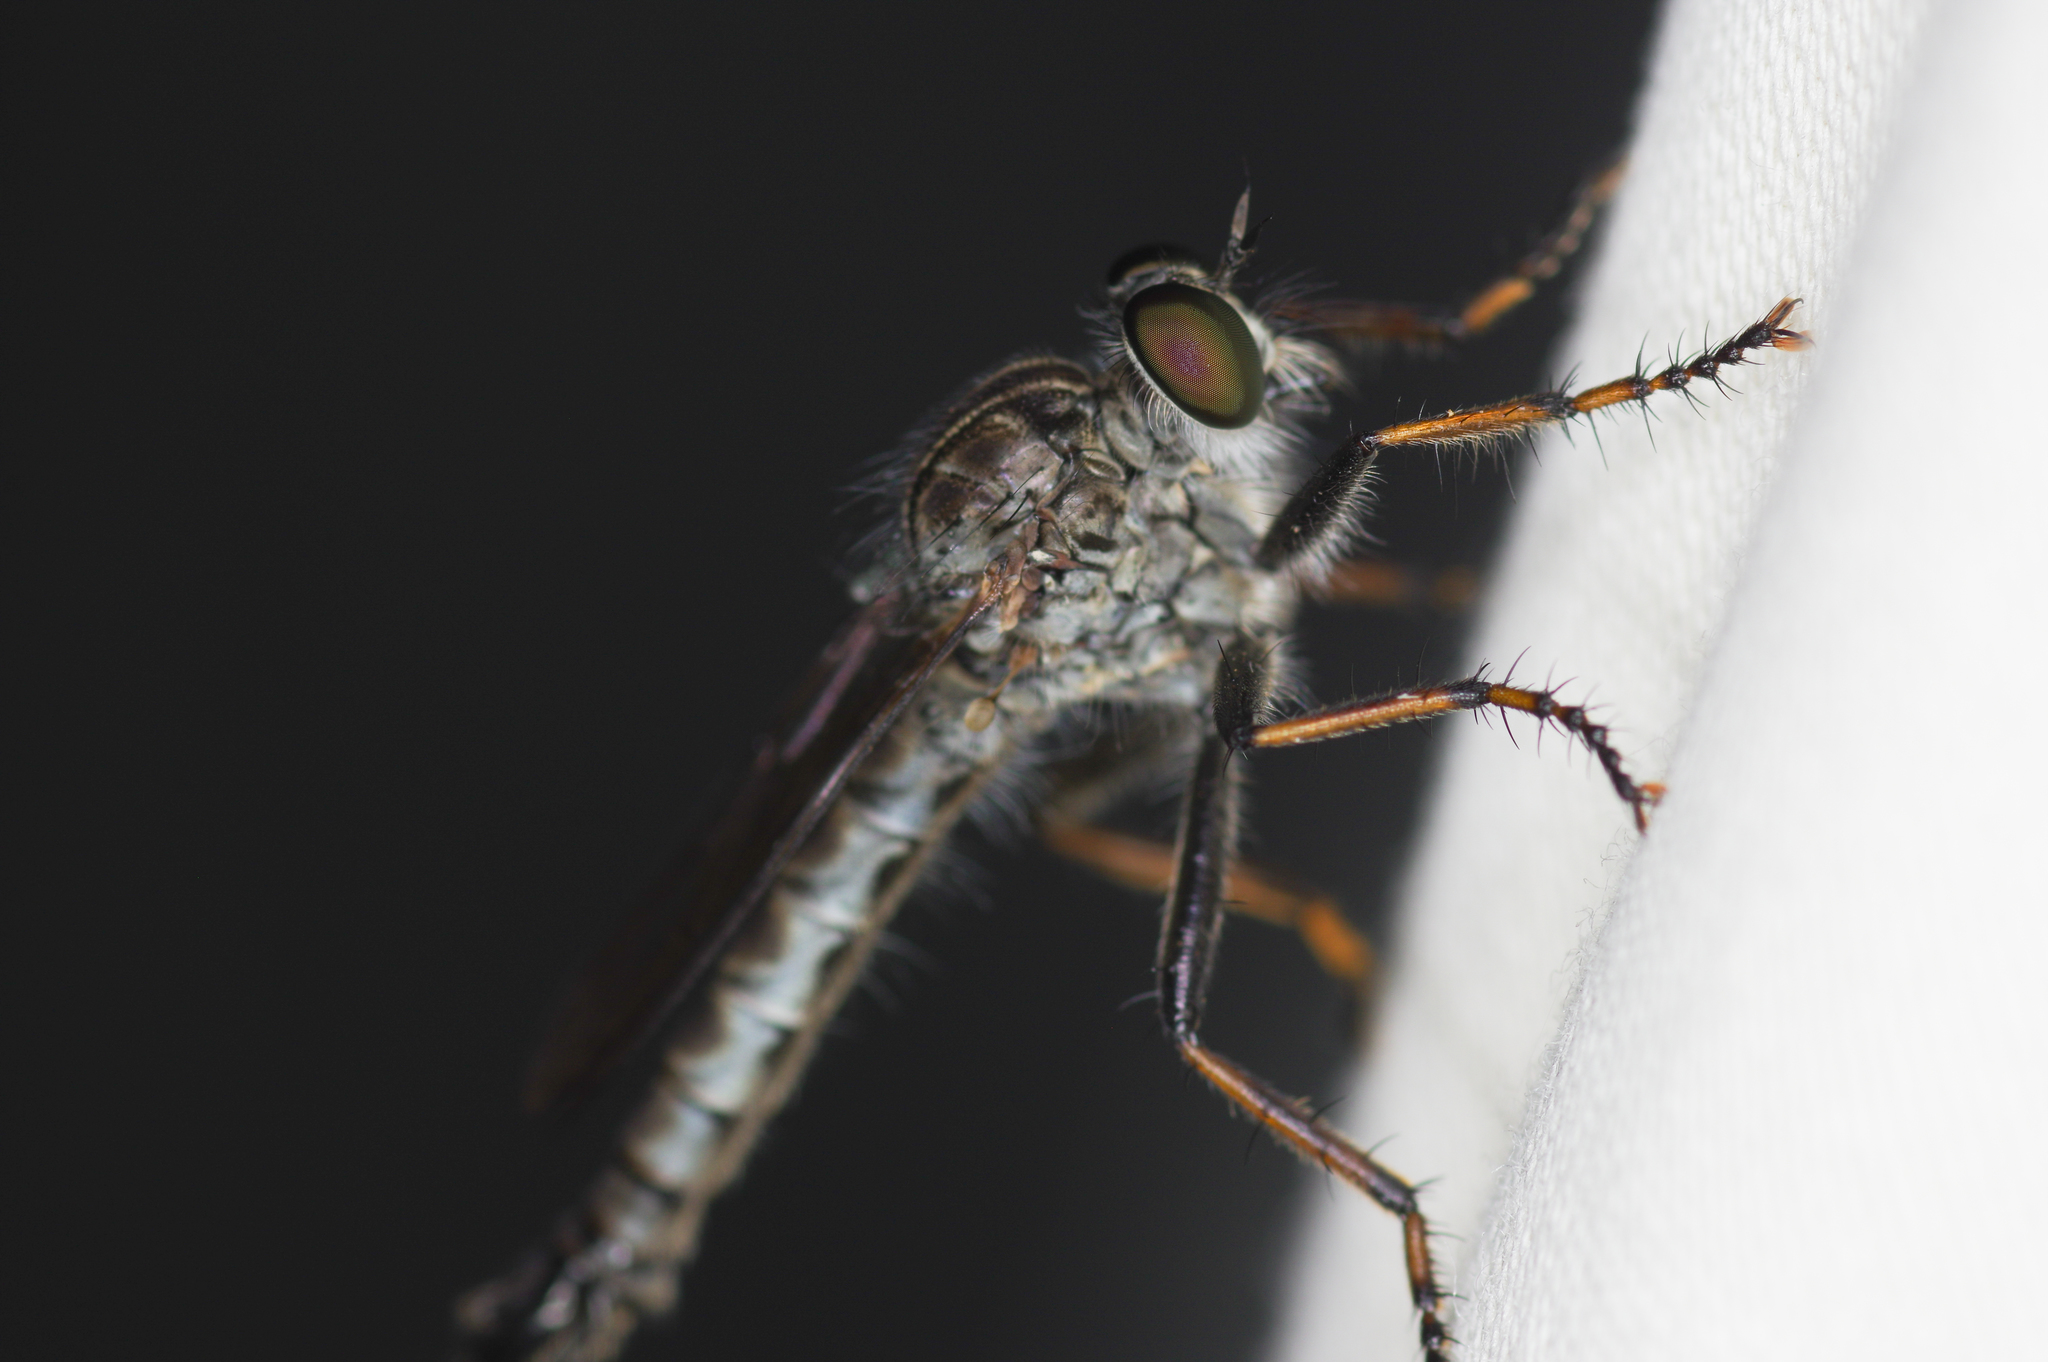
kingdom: Animalia
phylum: Arthropoda
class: Insecta
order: Diptera
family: Asilidae
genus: Machimus
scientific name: Machimus sadyates
